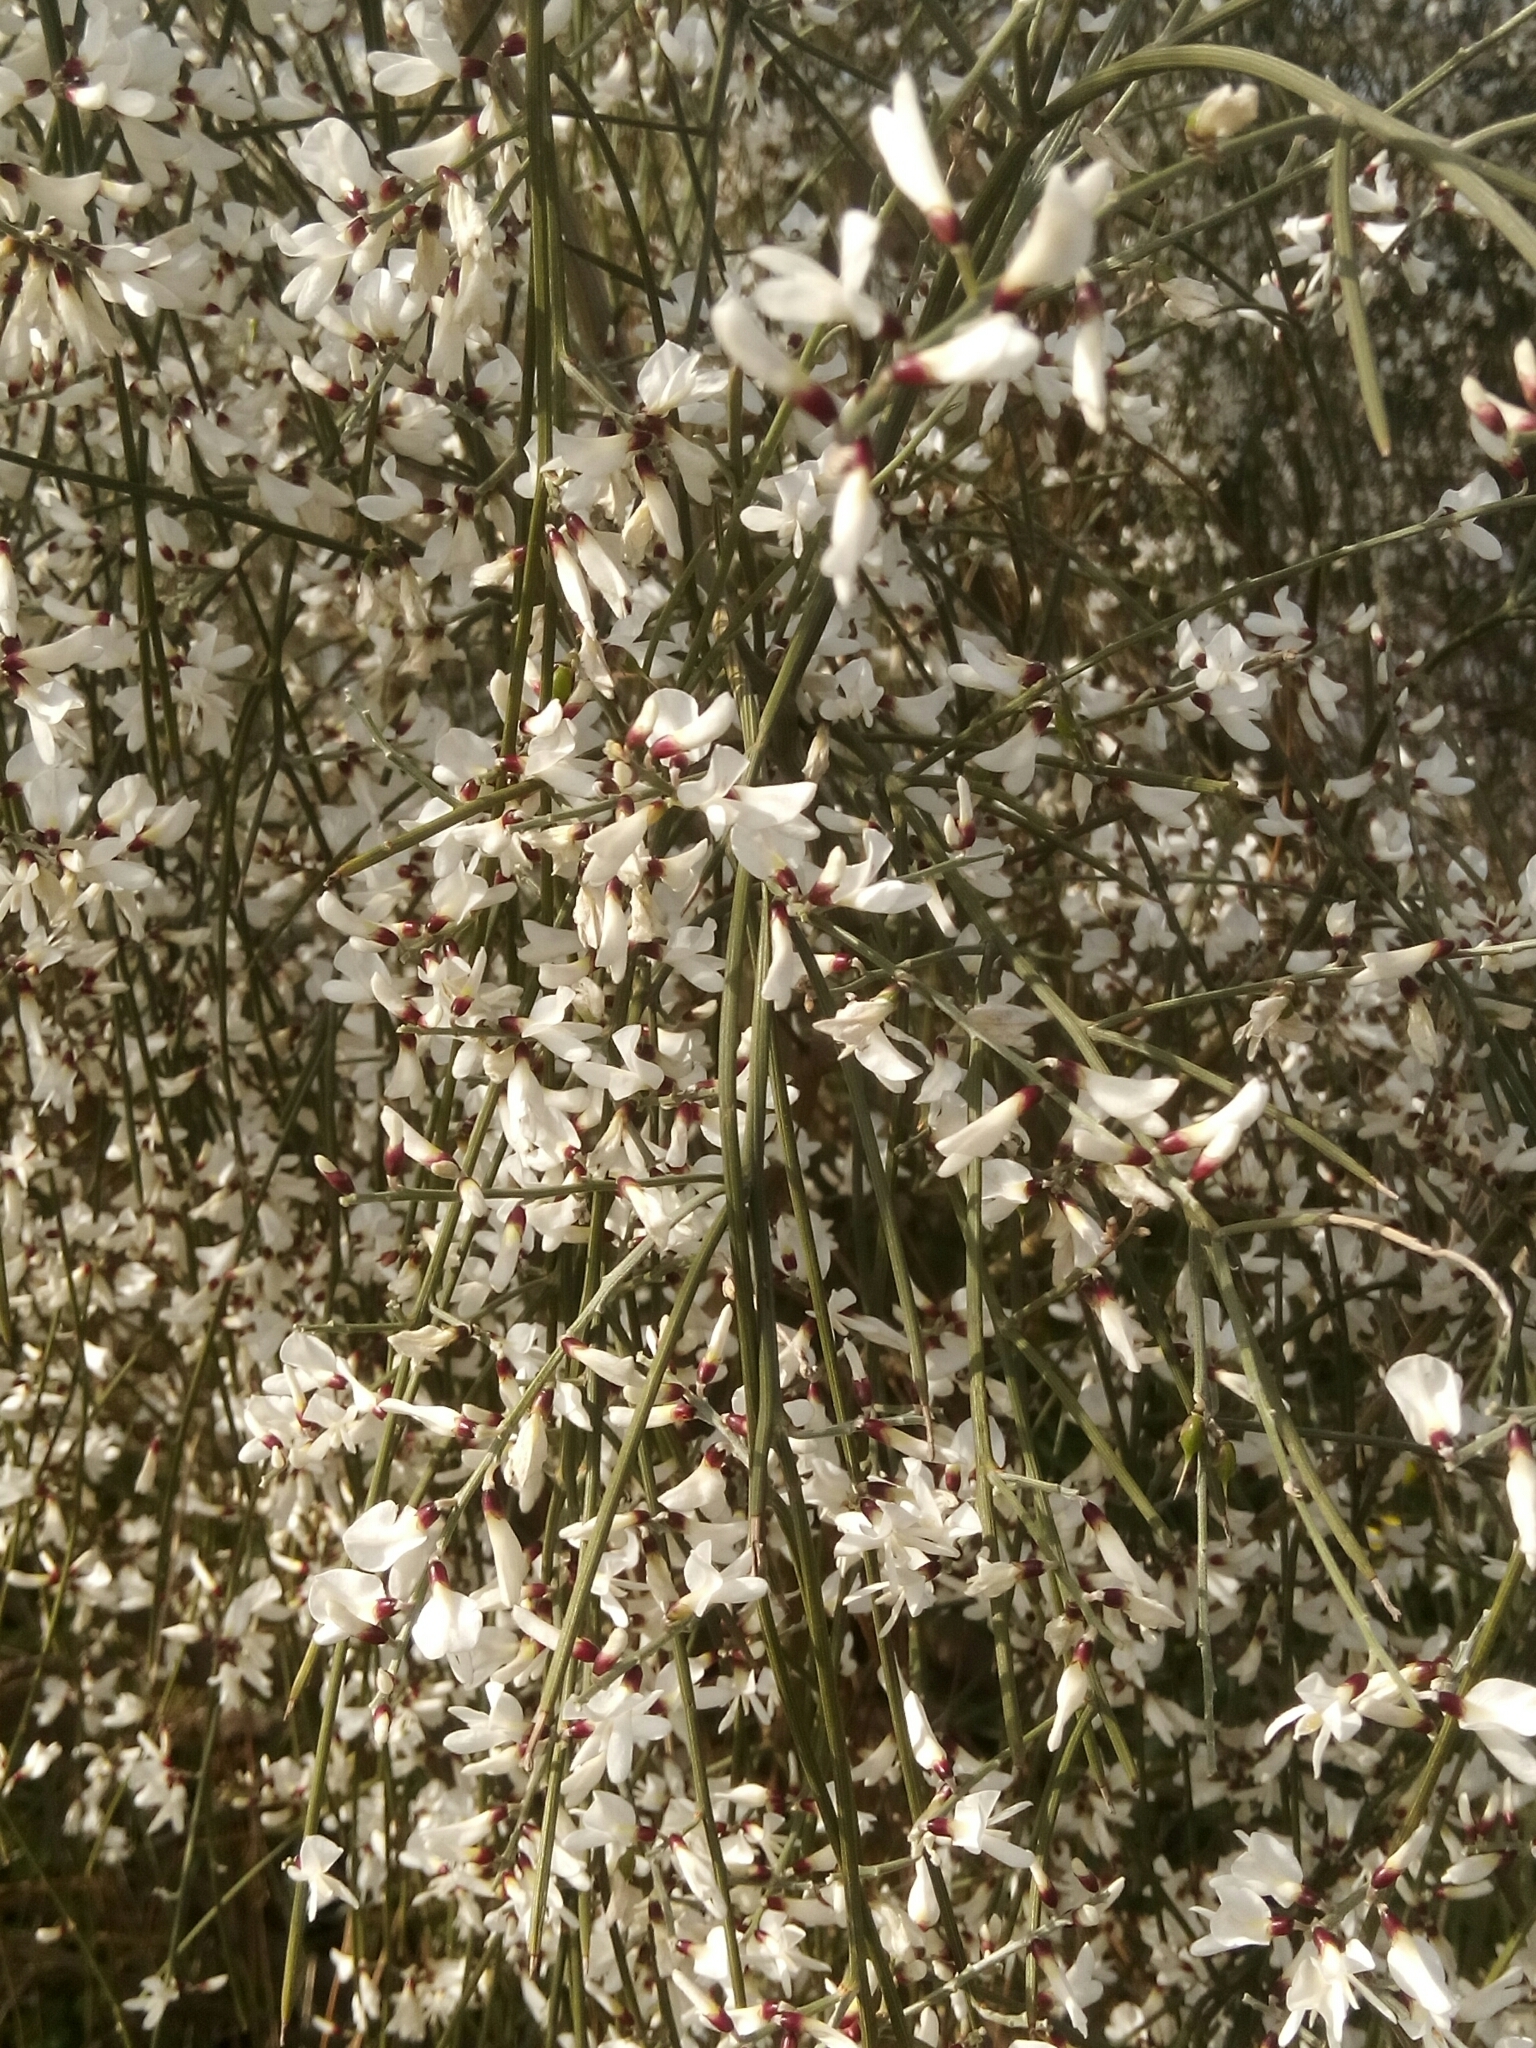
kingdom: Plantae
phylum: Tracheophyta
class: Magnoliopsida
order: Fabales
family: Fabaceae
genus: Retama
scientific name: Retama monosperma
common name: Bridal broom
